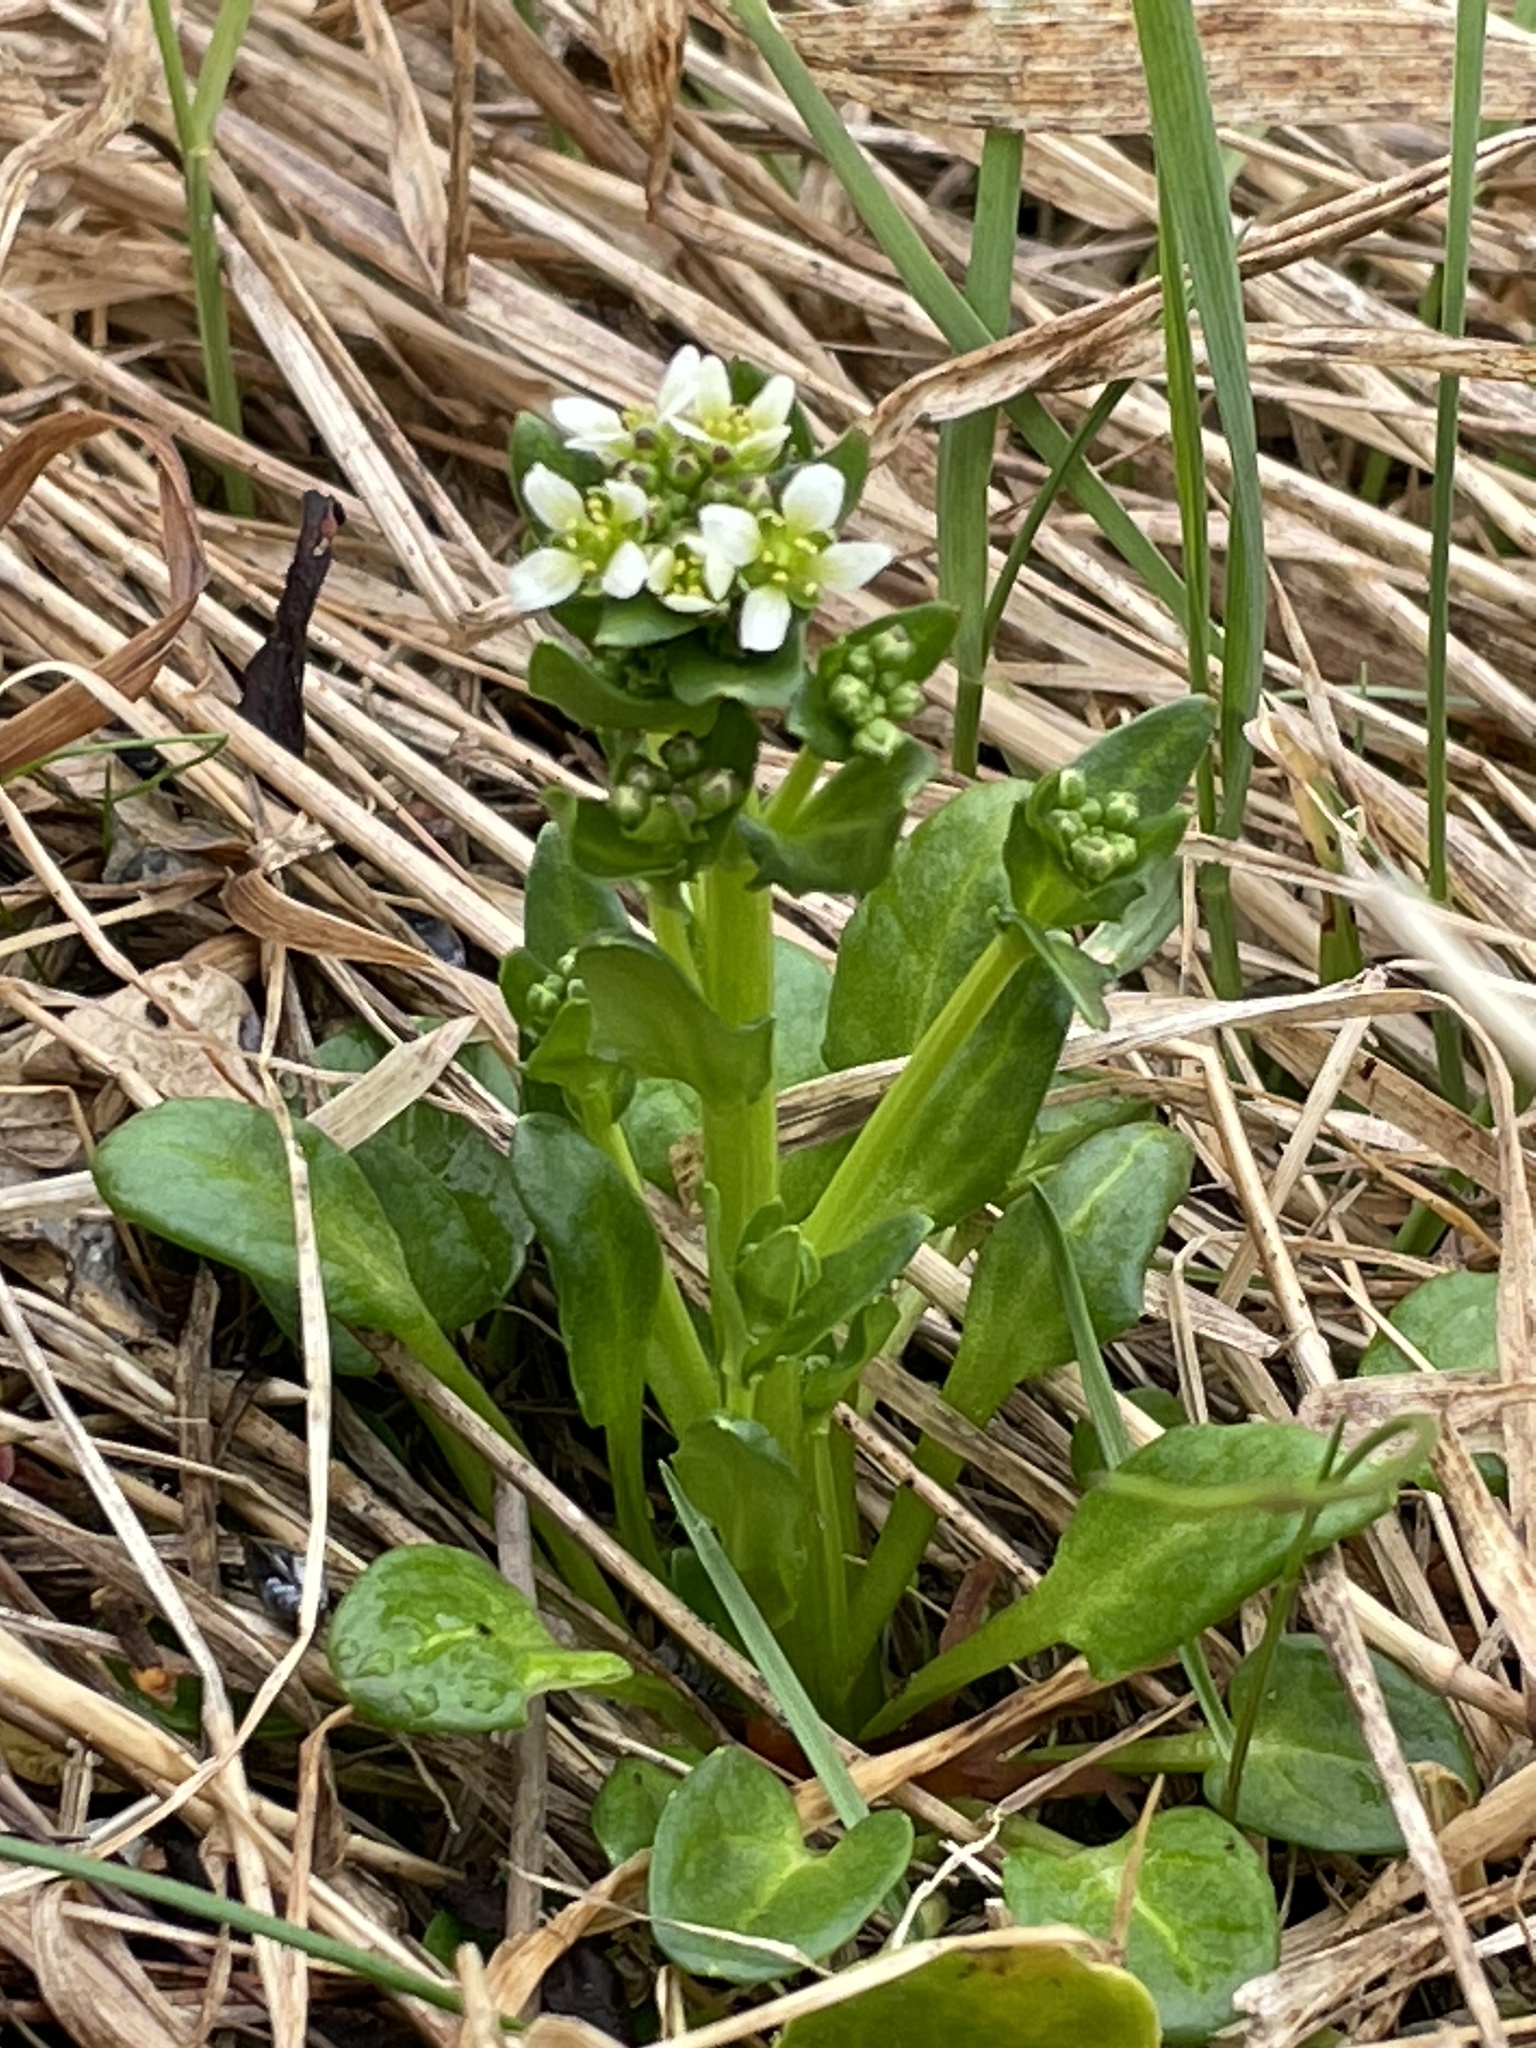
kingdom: Plantae
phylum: Tracheophyta
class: Magnoliopsida
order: Brassicales
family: Brassicaceae
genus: Cochlearia
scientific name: Cochlearia officinalis
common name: Scurvy-grass
